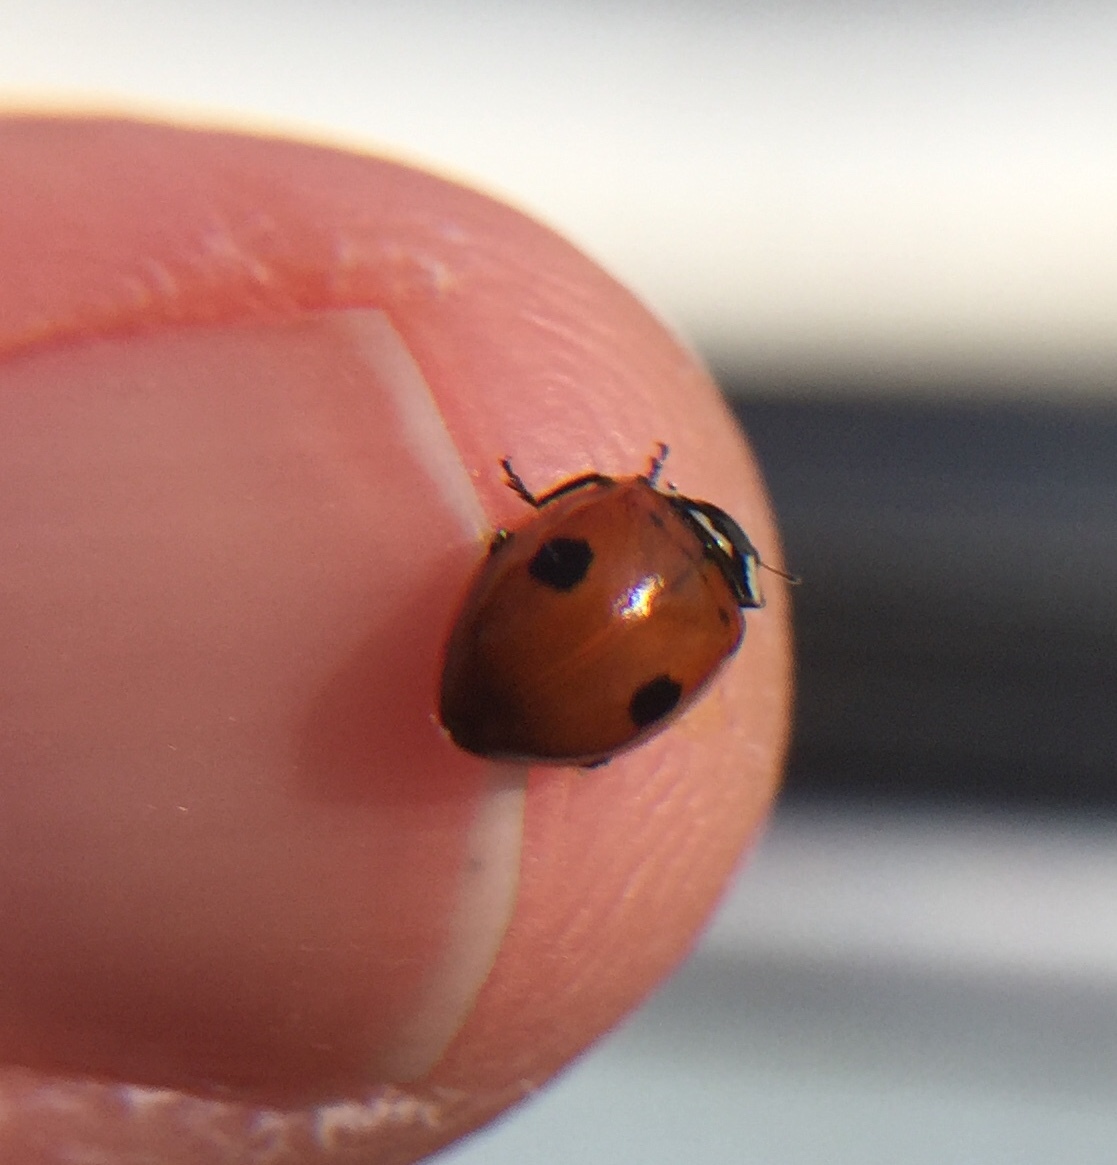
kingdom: Animalia
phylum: Arthropoda
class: Insecta
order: Coleoptera
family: Coccinellidae
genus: Adalia
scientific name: Adalia bipunctata
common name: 2-spot ladybird
